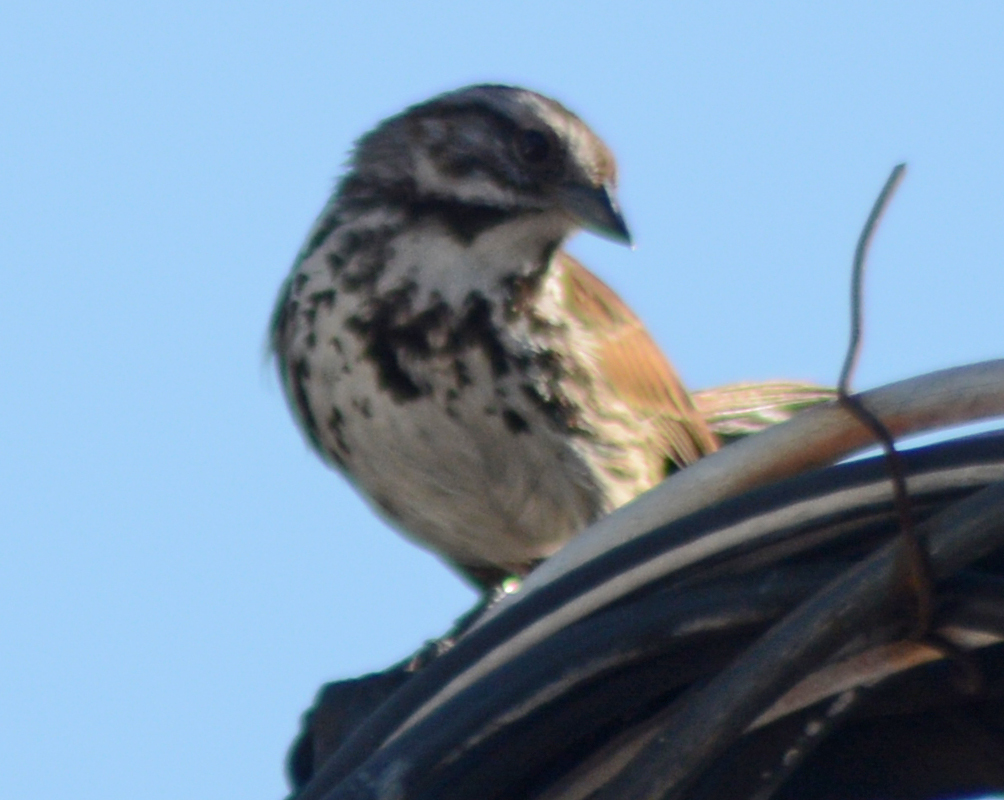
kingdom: Animalia
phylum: Chordata
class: Aves
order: Passeriformes
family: Passerellidae
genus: Melospiza
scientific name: Melospiza melodia
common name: Song sparrow
